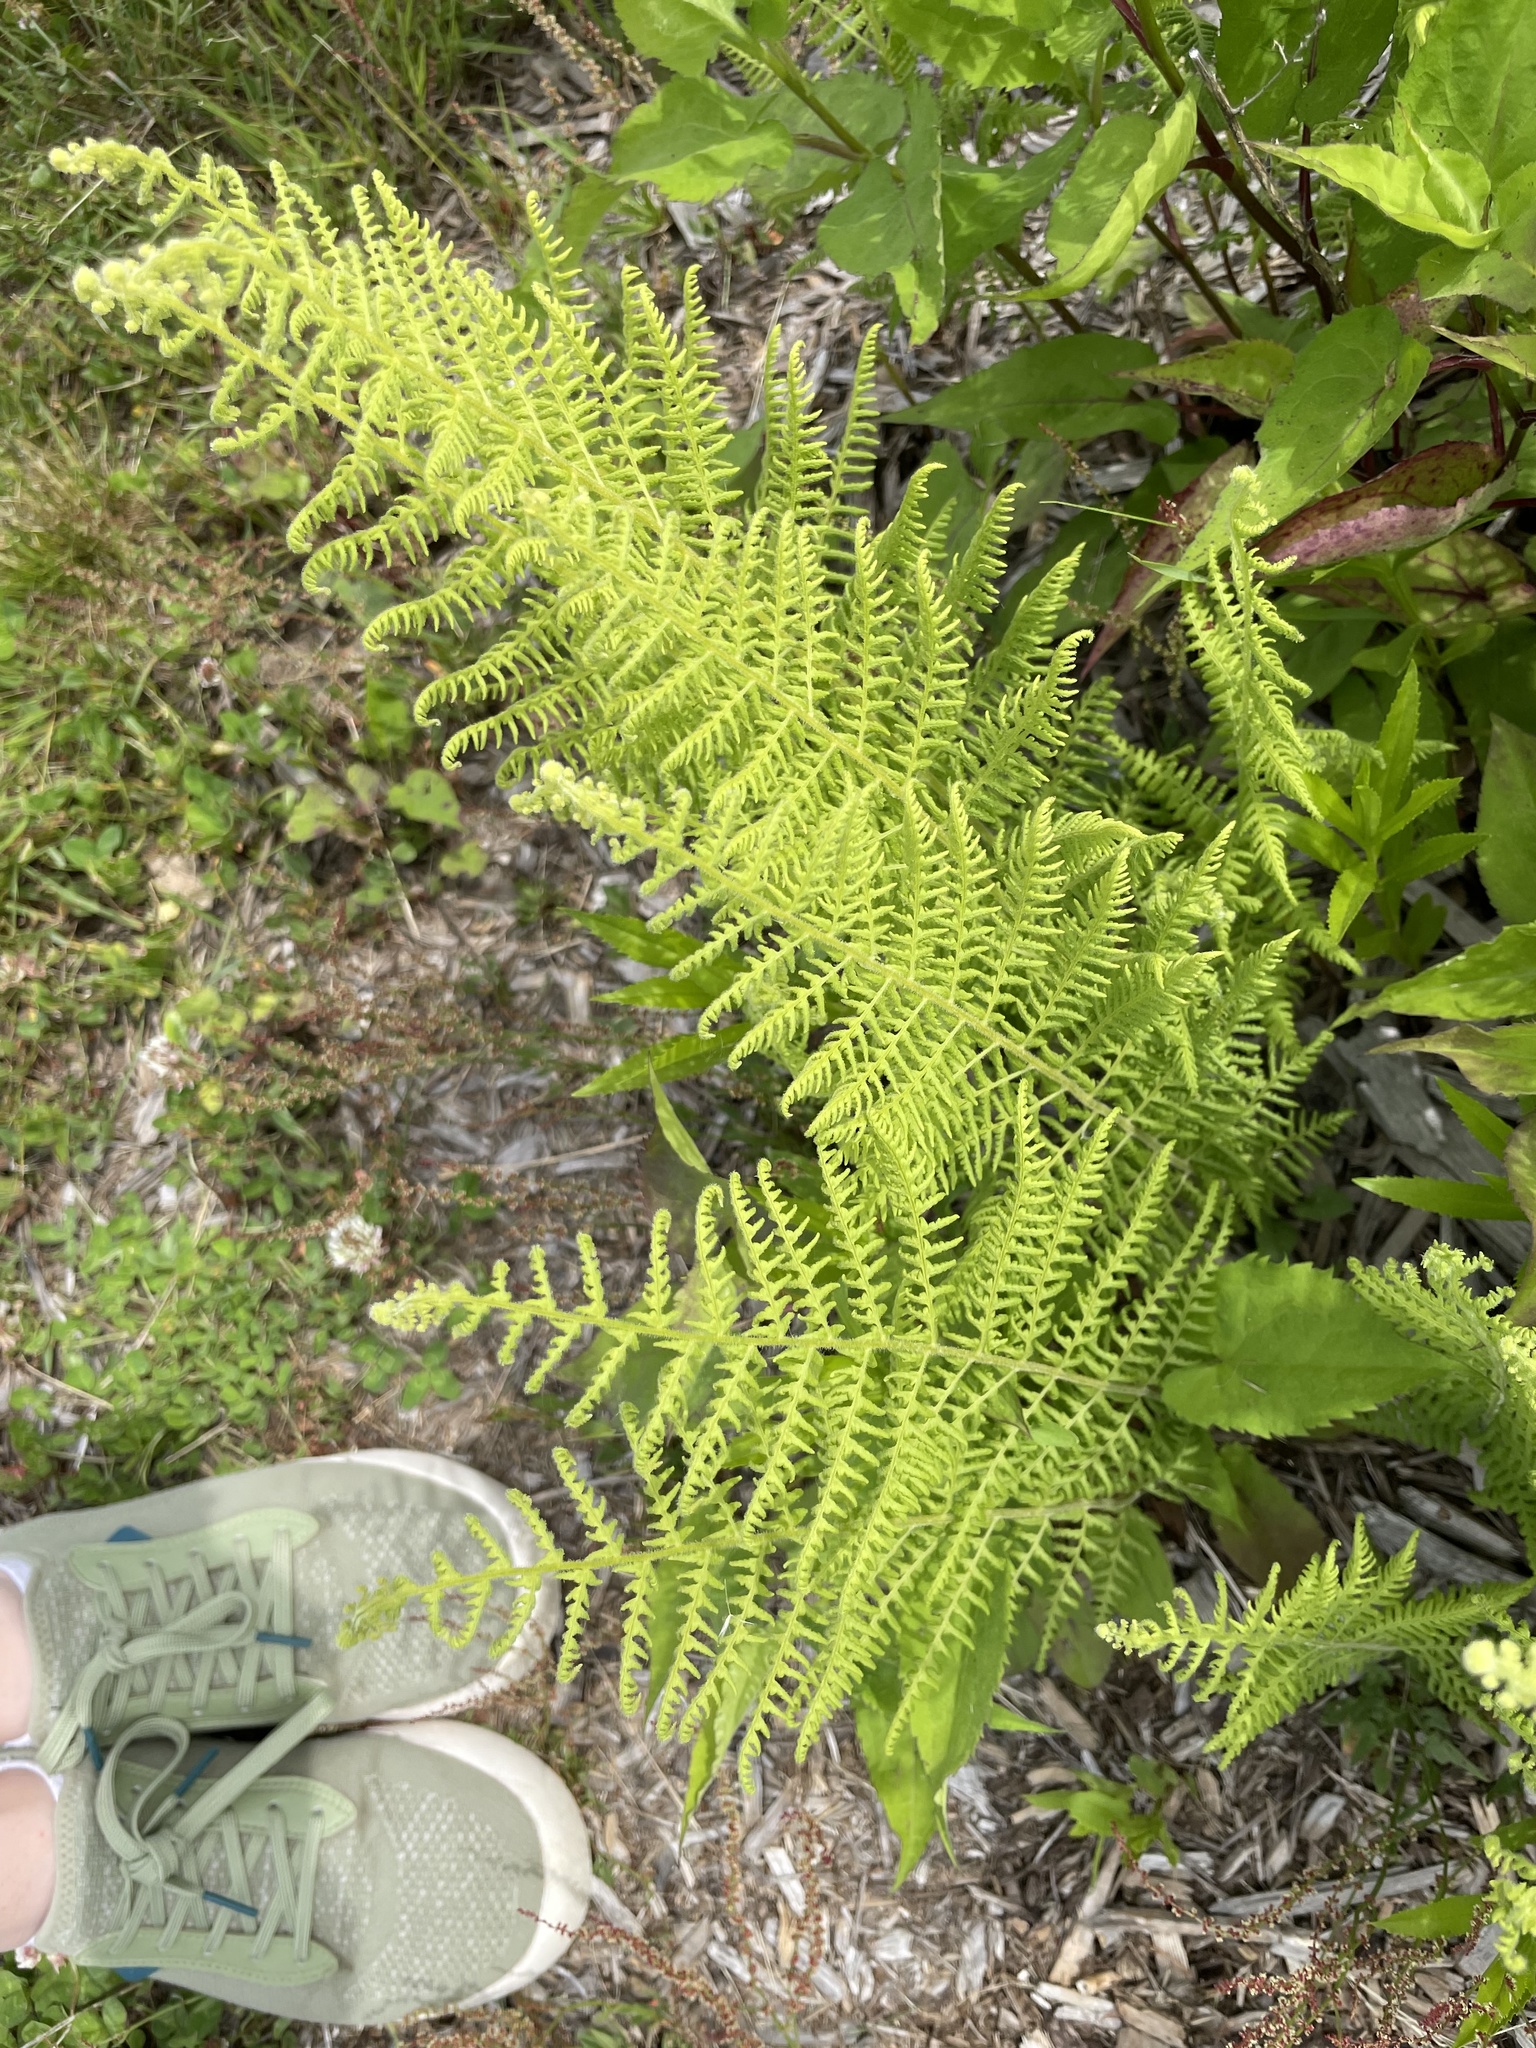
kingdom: Plantae
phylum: Tracheophyta
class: Polypodiopsida
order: Polypodiales
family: Dennstaedtiaceae
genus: Sitobolium
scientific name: Sitobolium punctilobum
